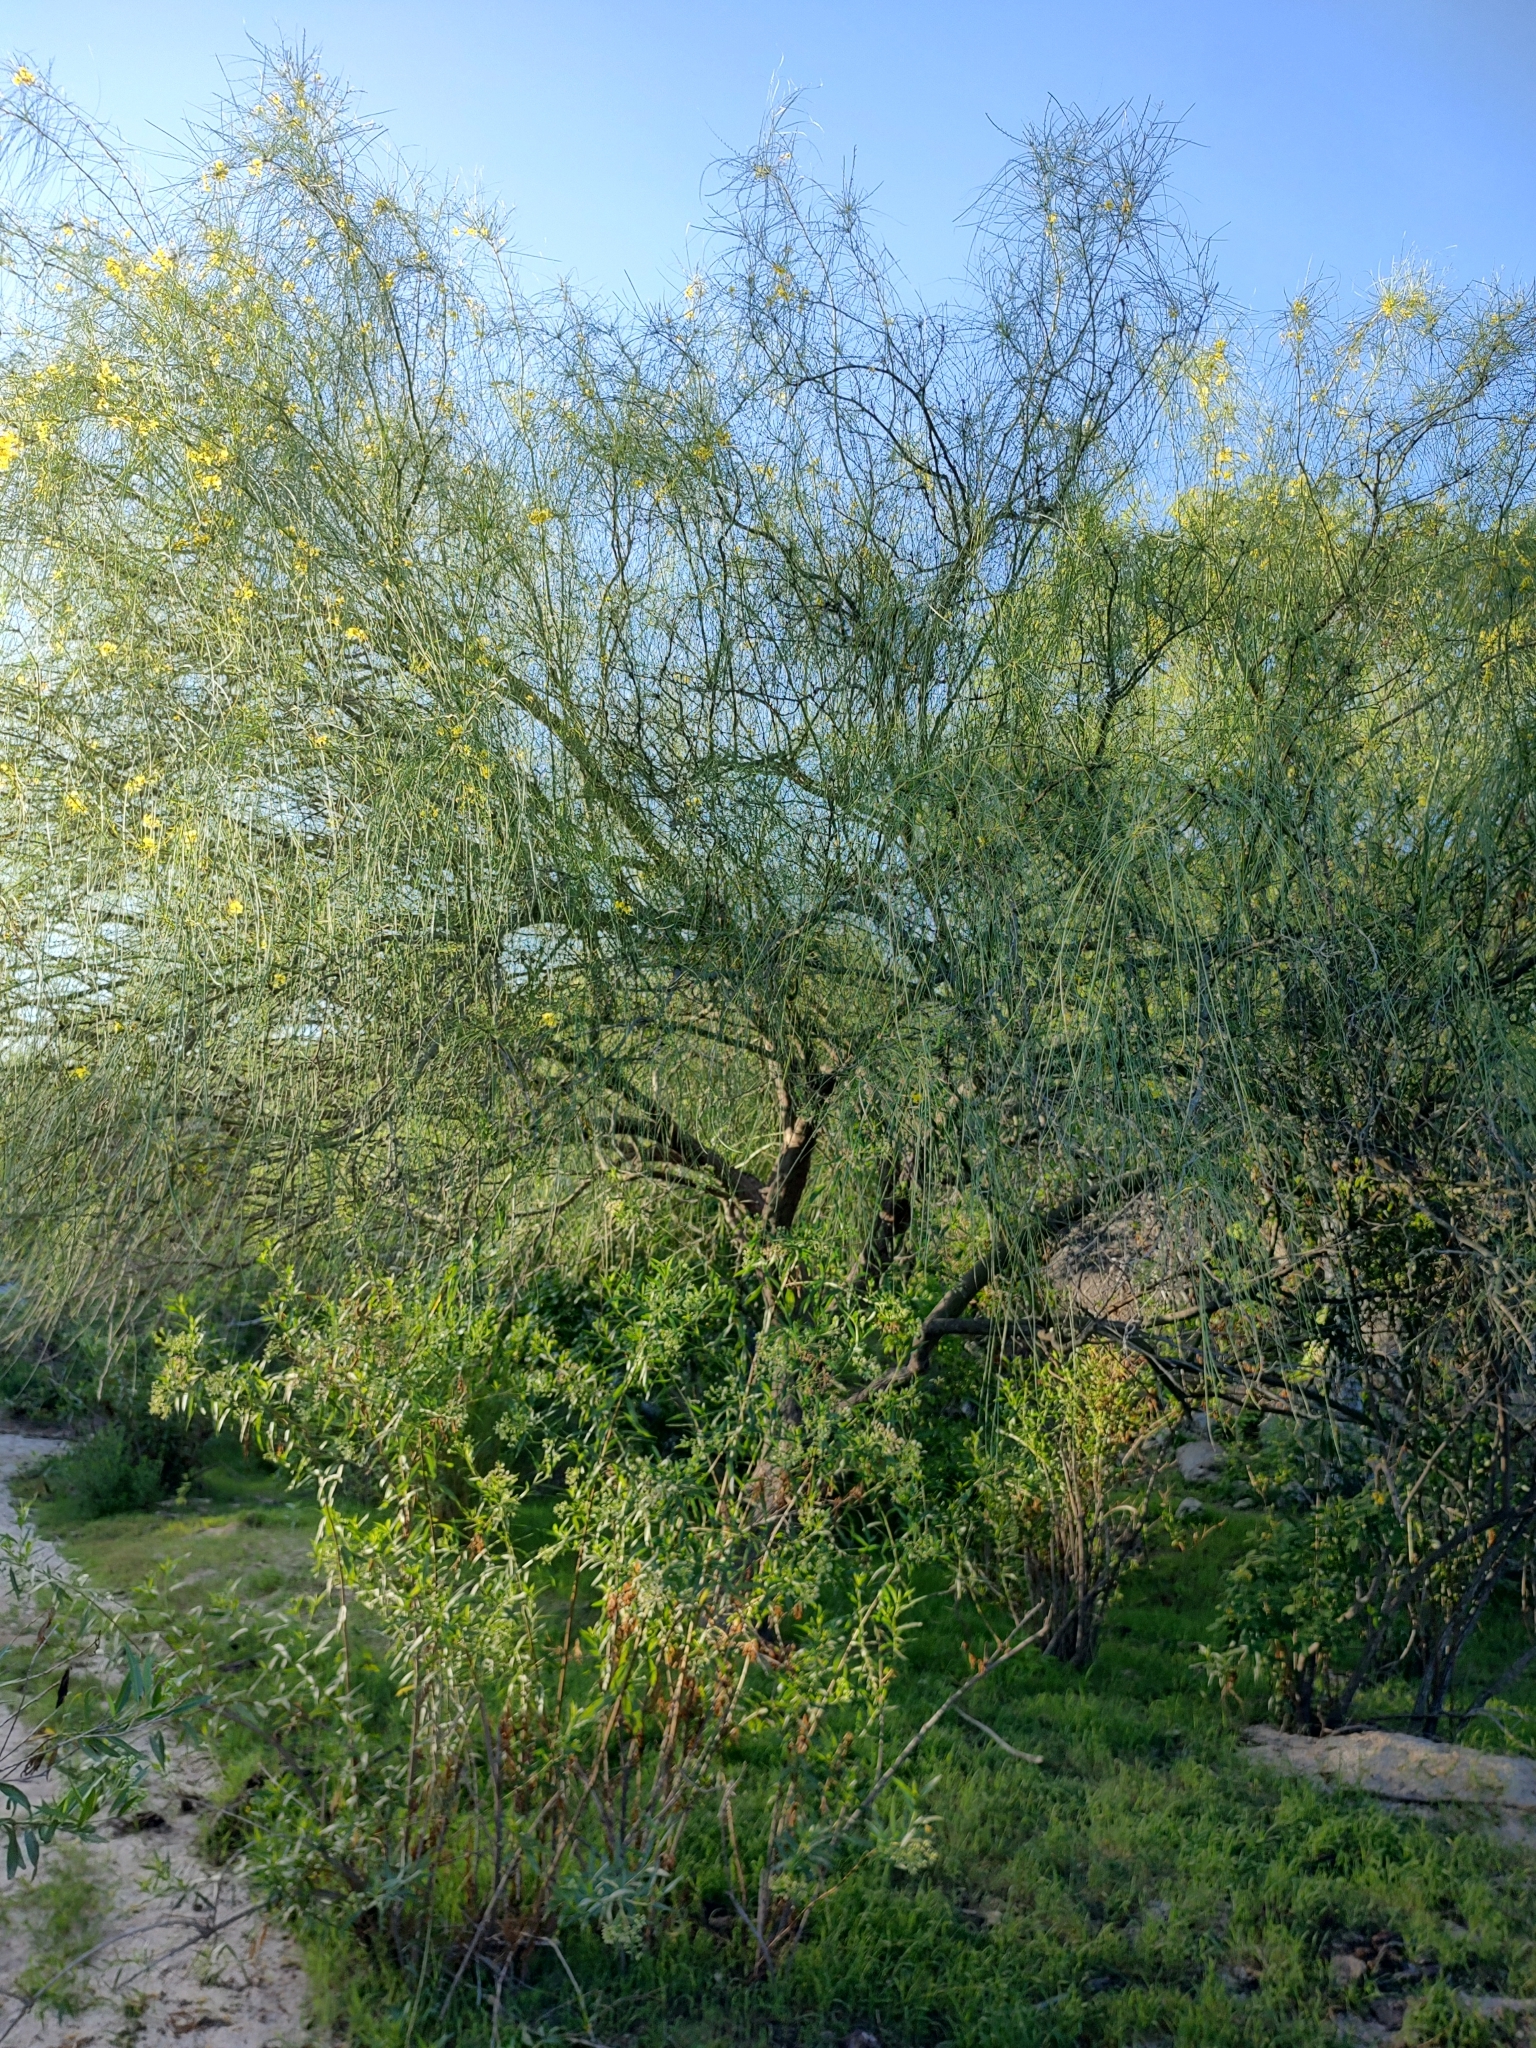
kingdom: Plantae
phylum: Tracheophyta
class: Magnoliopsida
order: Fabales
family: Fabaceae
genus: Parkinsonia
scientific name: Parkinsonia aculeata
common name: Jerusalem thorn
